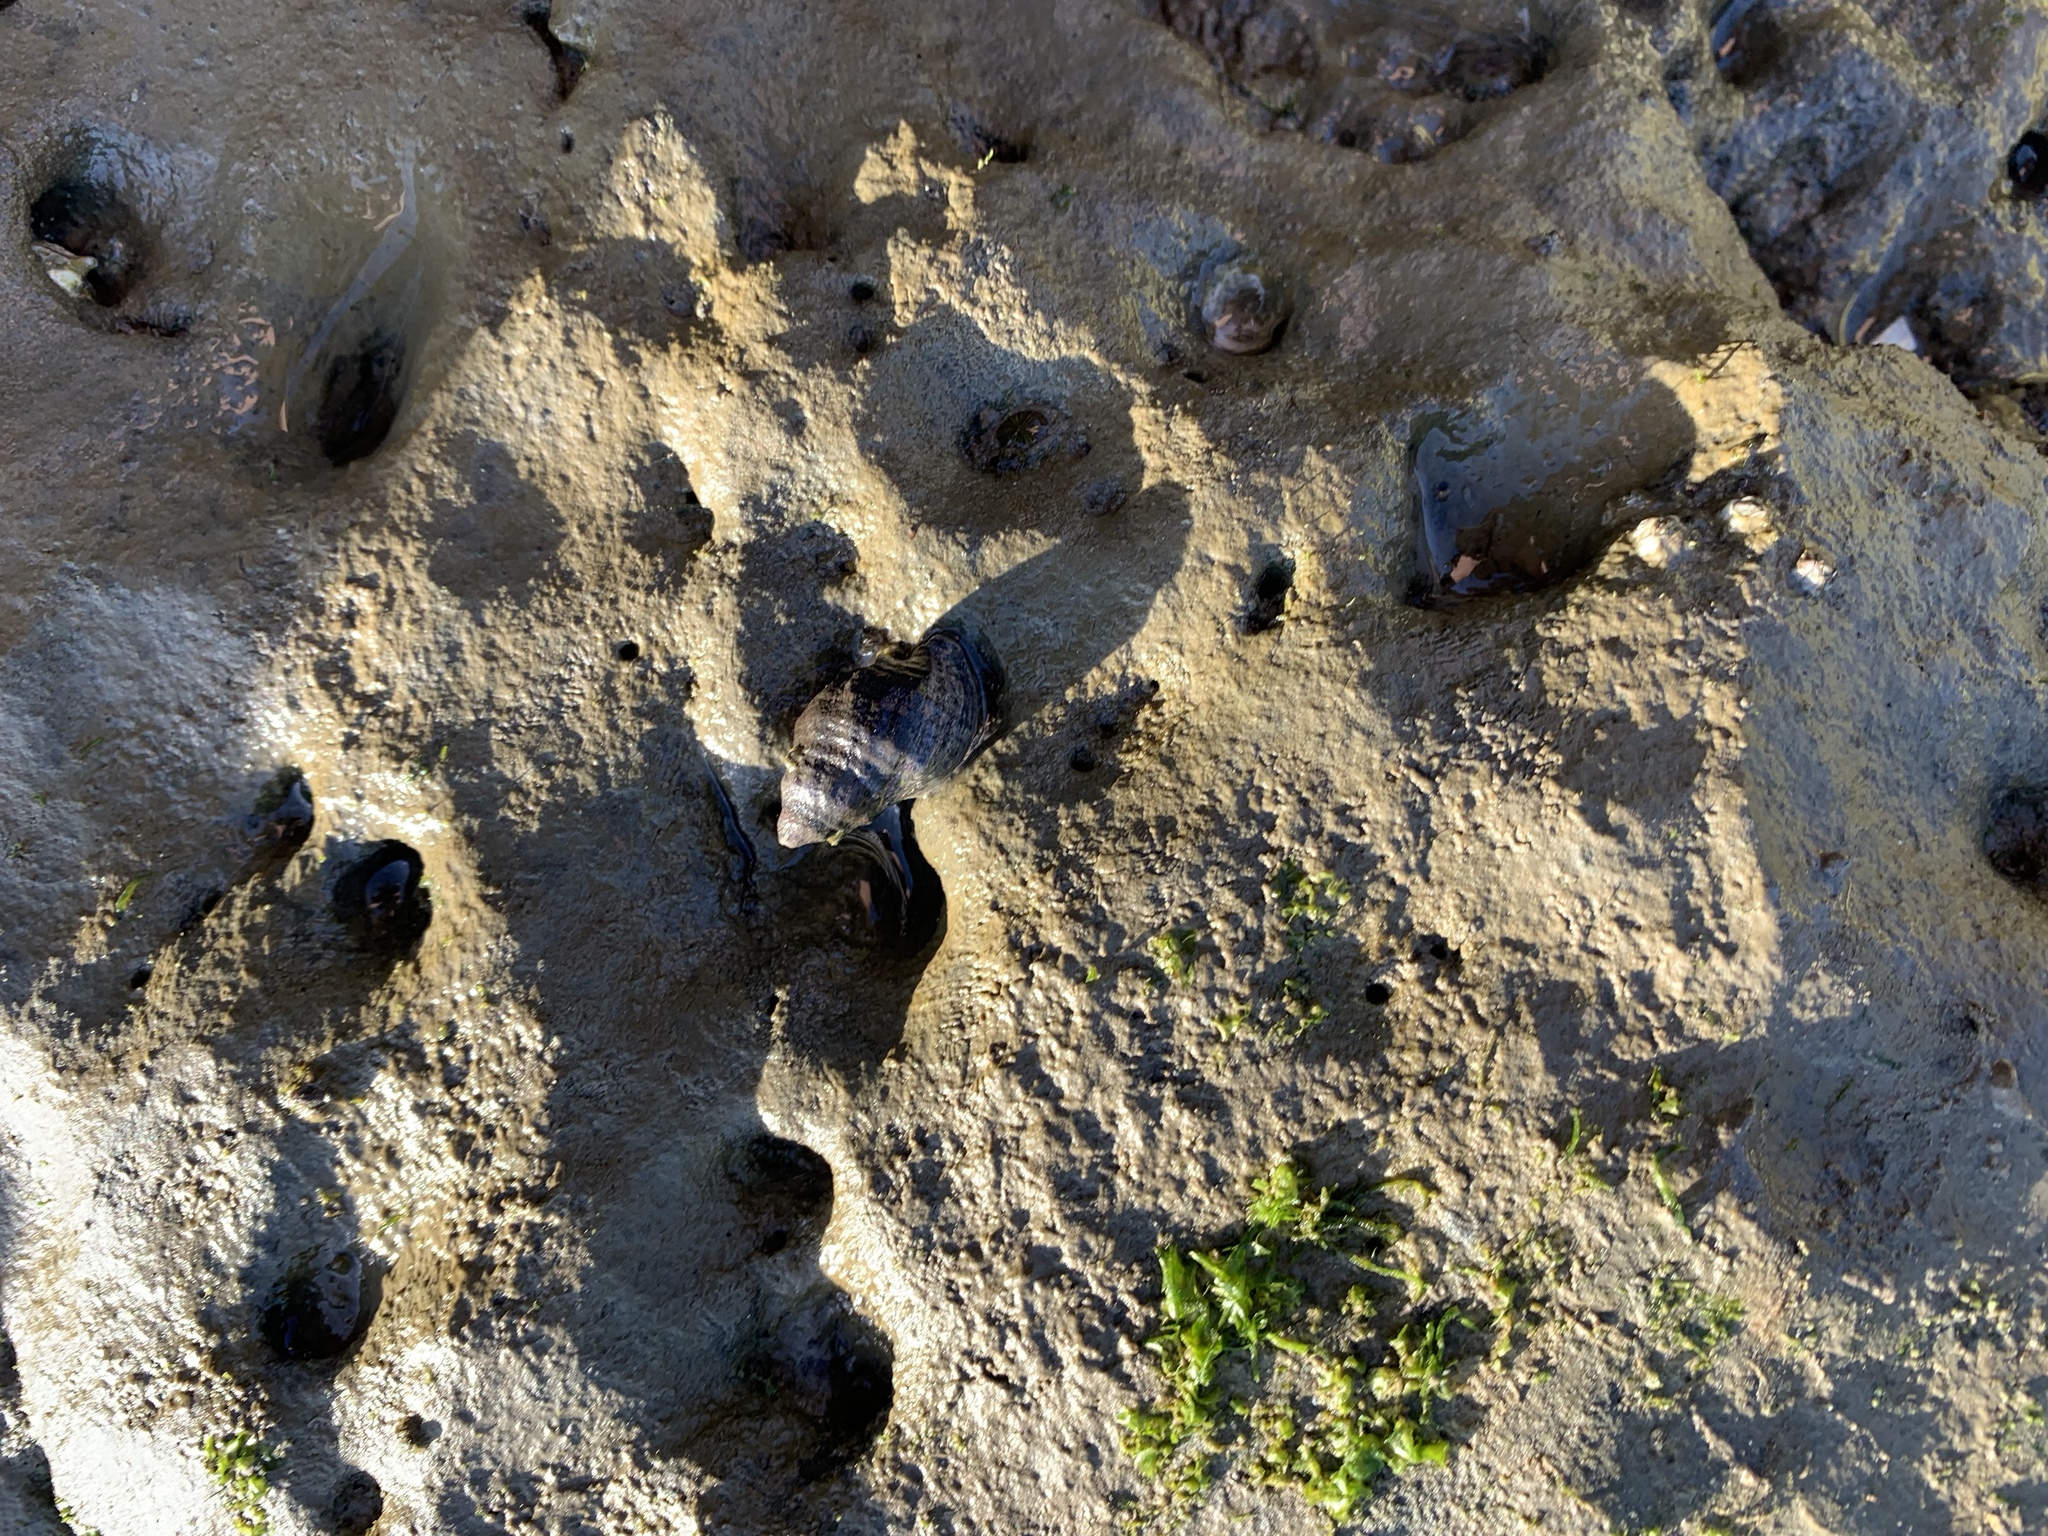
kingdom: Animalia
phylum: Mollusca
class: Gastropoda
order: Neogastropoda
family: Muricidae
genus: Haustrum
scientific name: Haustrum scobina
